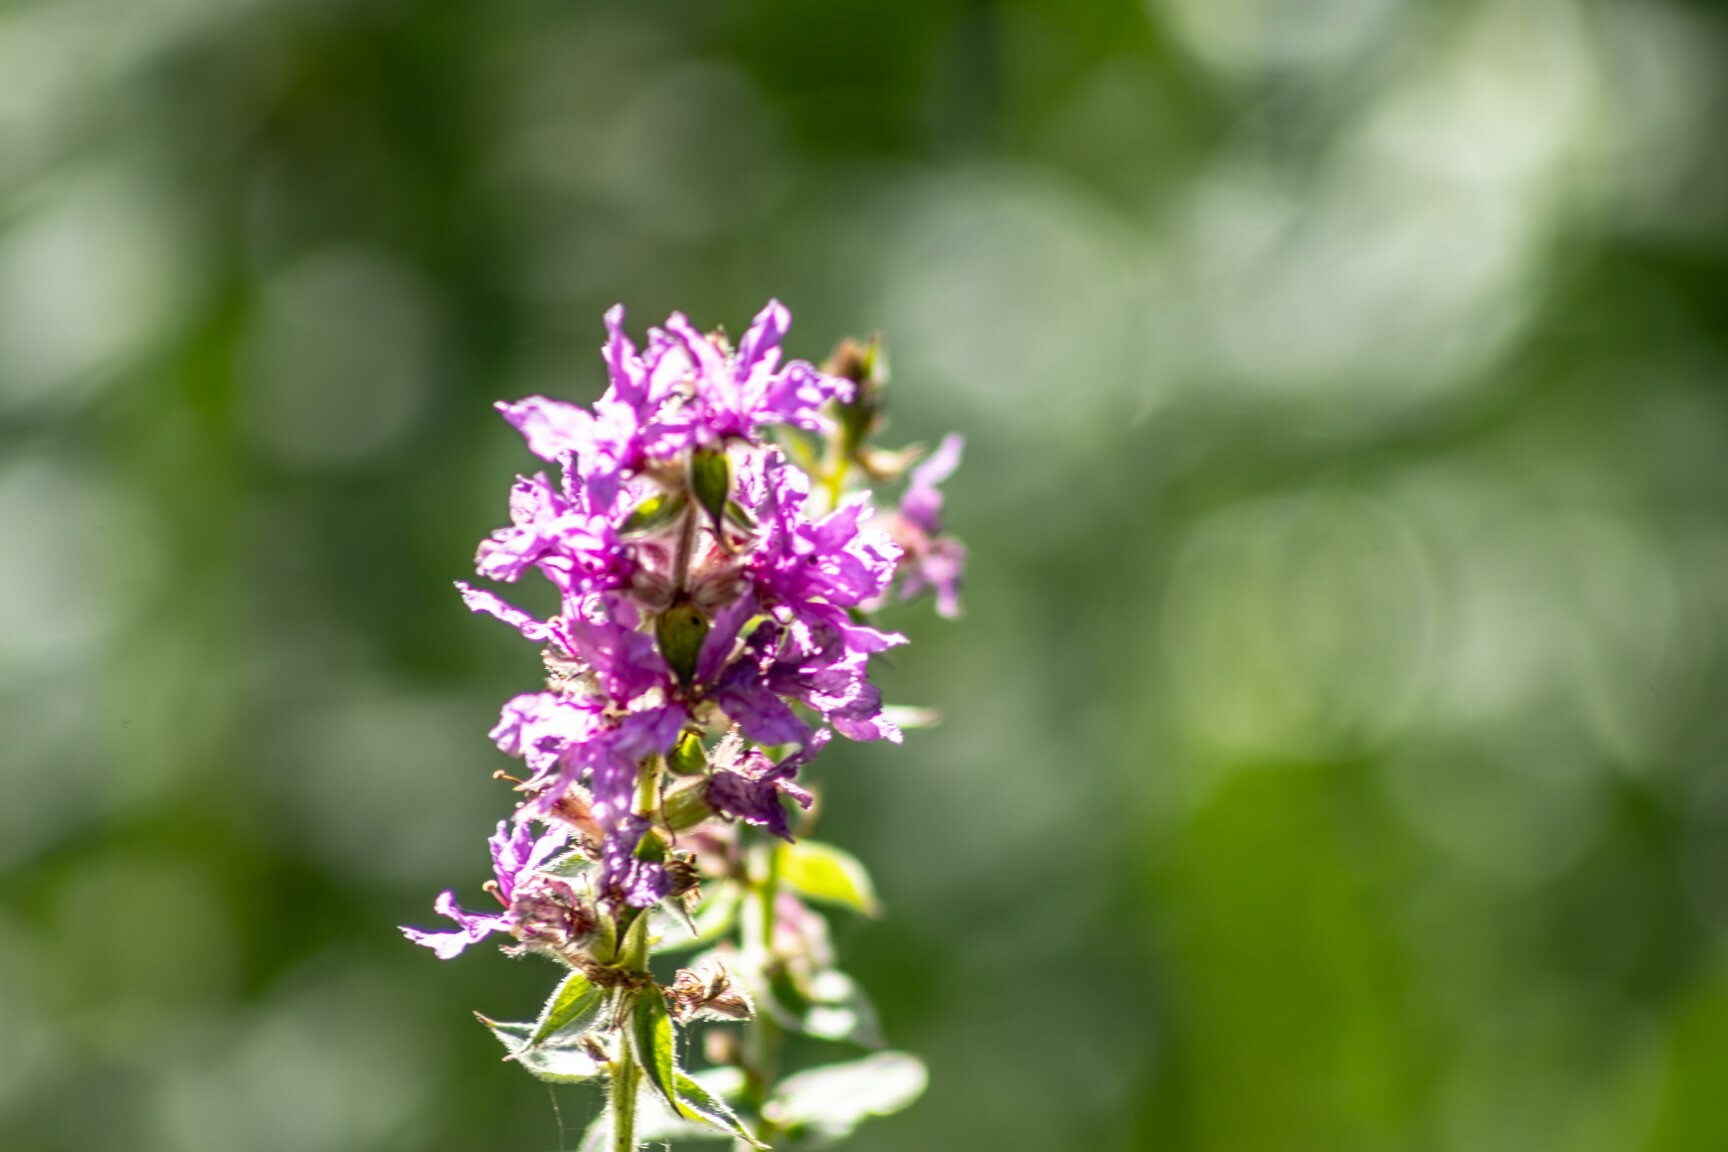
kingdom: Plantae
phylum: Tracheophyta
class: Magnoliopsida
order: Myrtales
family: Lythraceae
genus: Lythrum
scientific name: Lythrum salicaria
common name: Purple loosestrife
